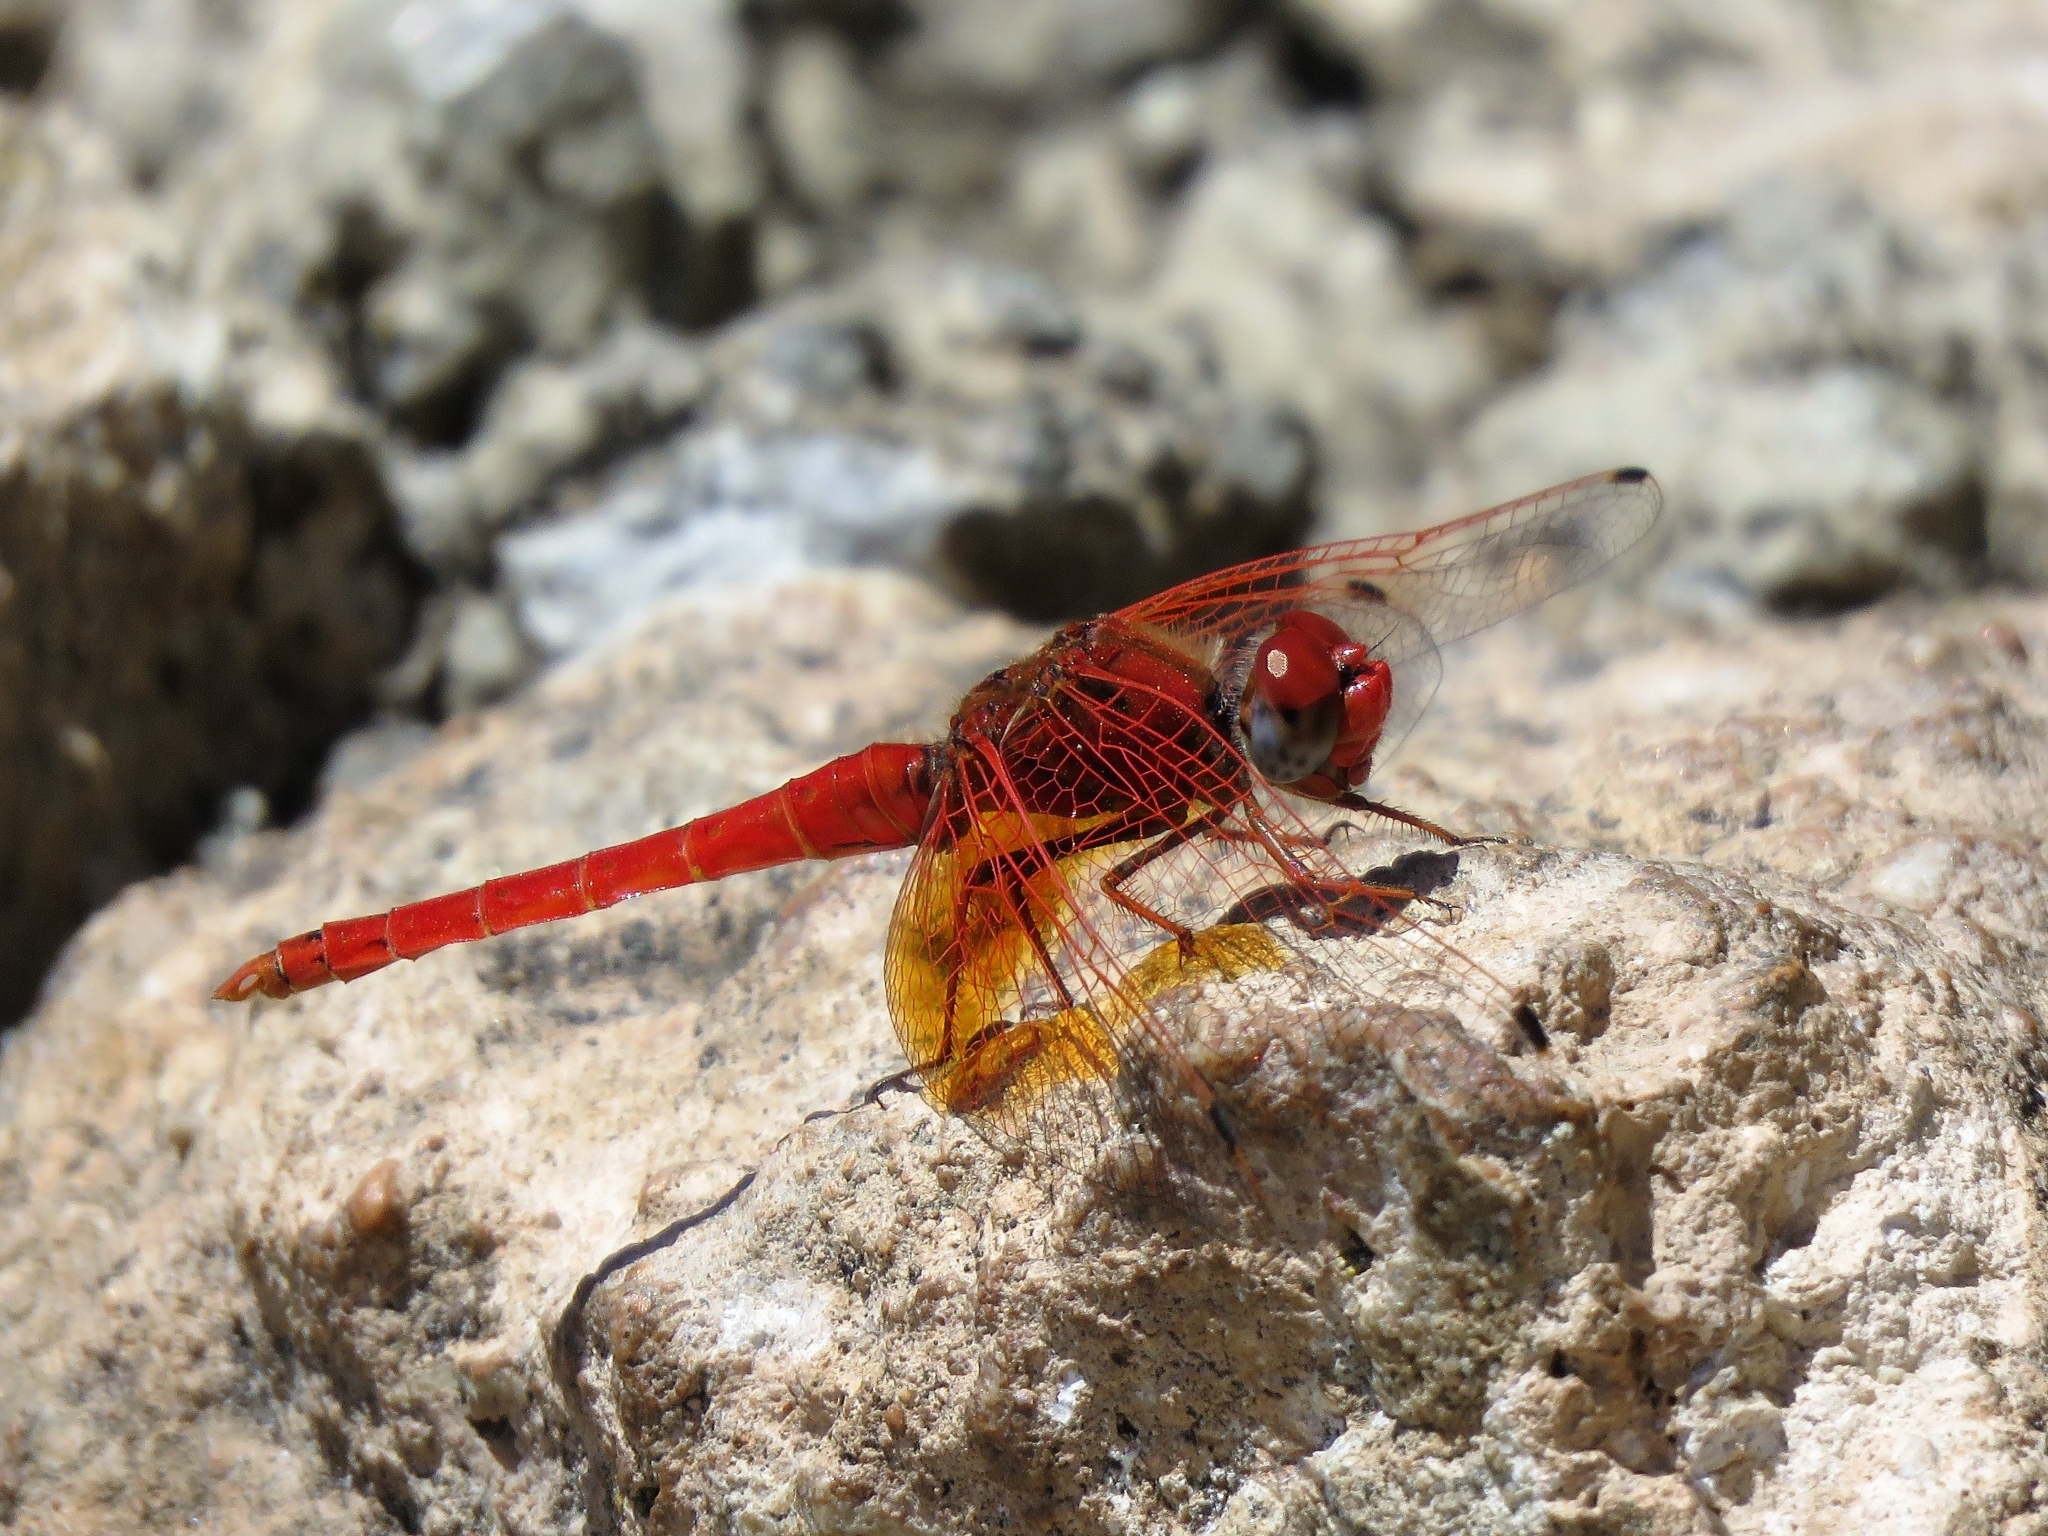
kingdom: Animalia
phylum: Arthropoda
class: Insecta
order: Odonata
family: Libellulidae
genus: Trithemis
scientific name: Trithemis kirbyi
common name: Kirby's dropwing
